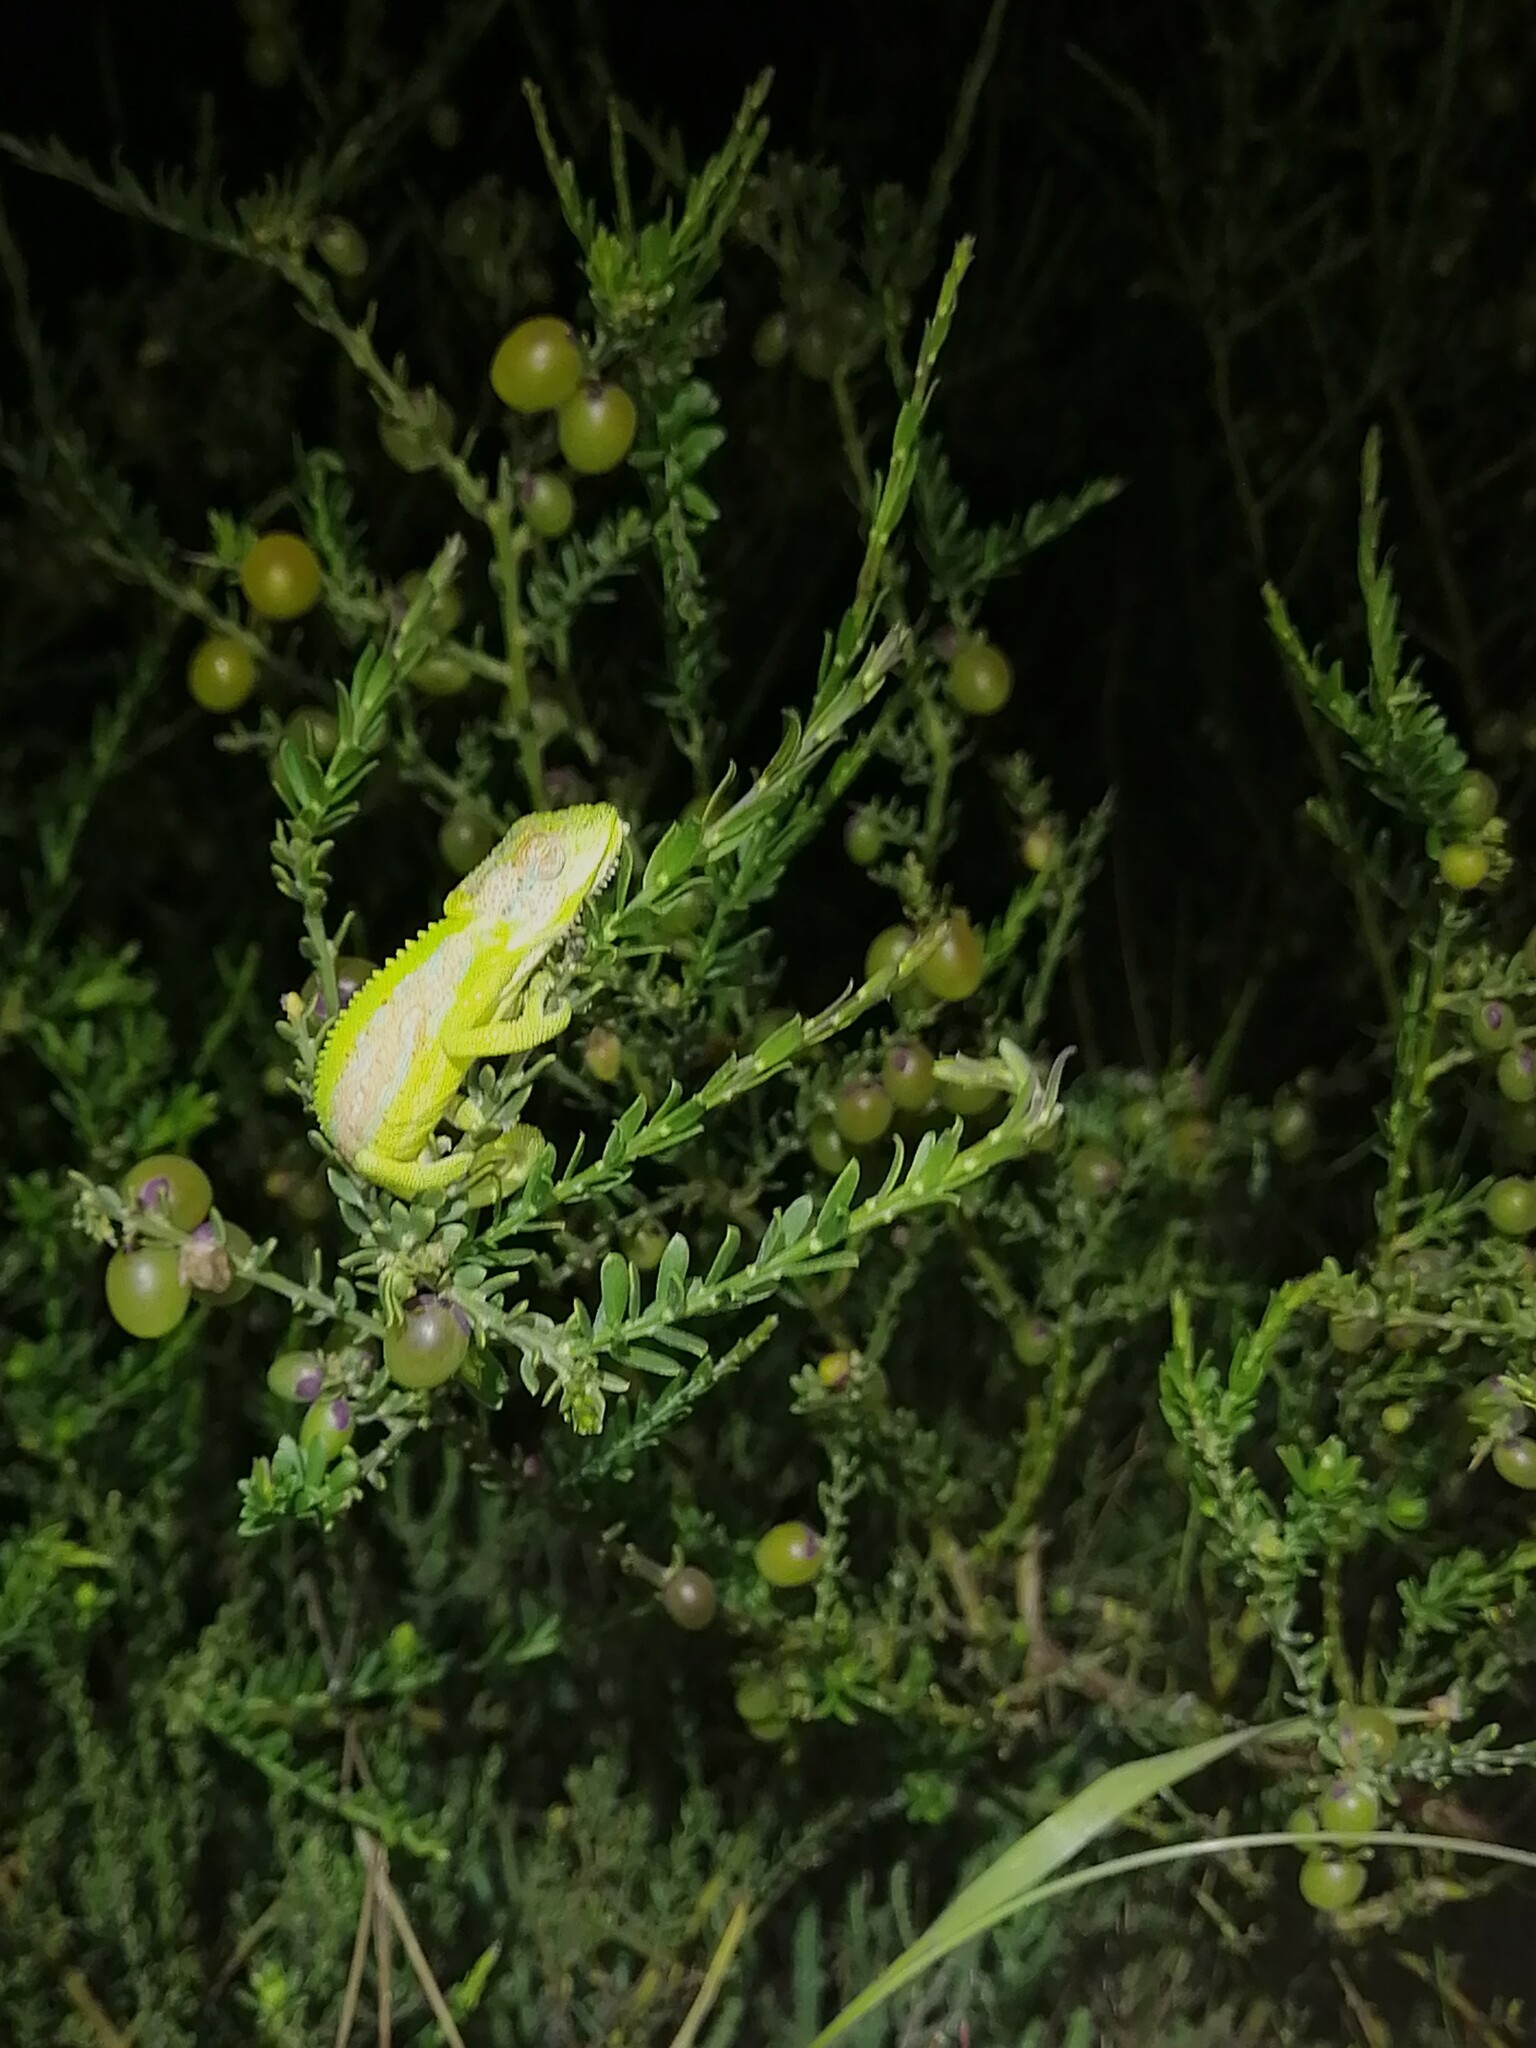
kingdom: Animalia
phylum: Chordata
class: Squamata
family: Chamaeleonidae
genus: Bradypodion
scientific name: Bradypodion pumilum
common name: Cape dwarf chameleon
